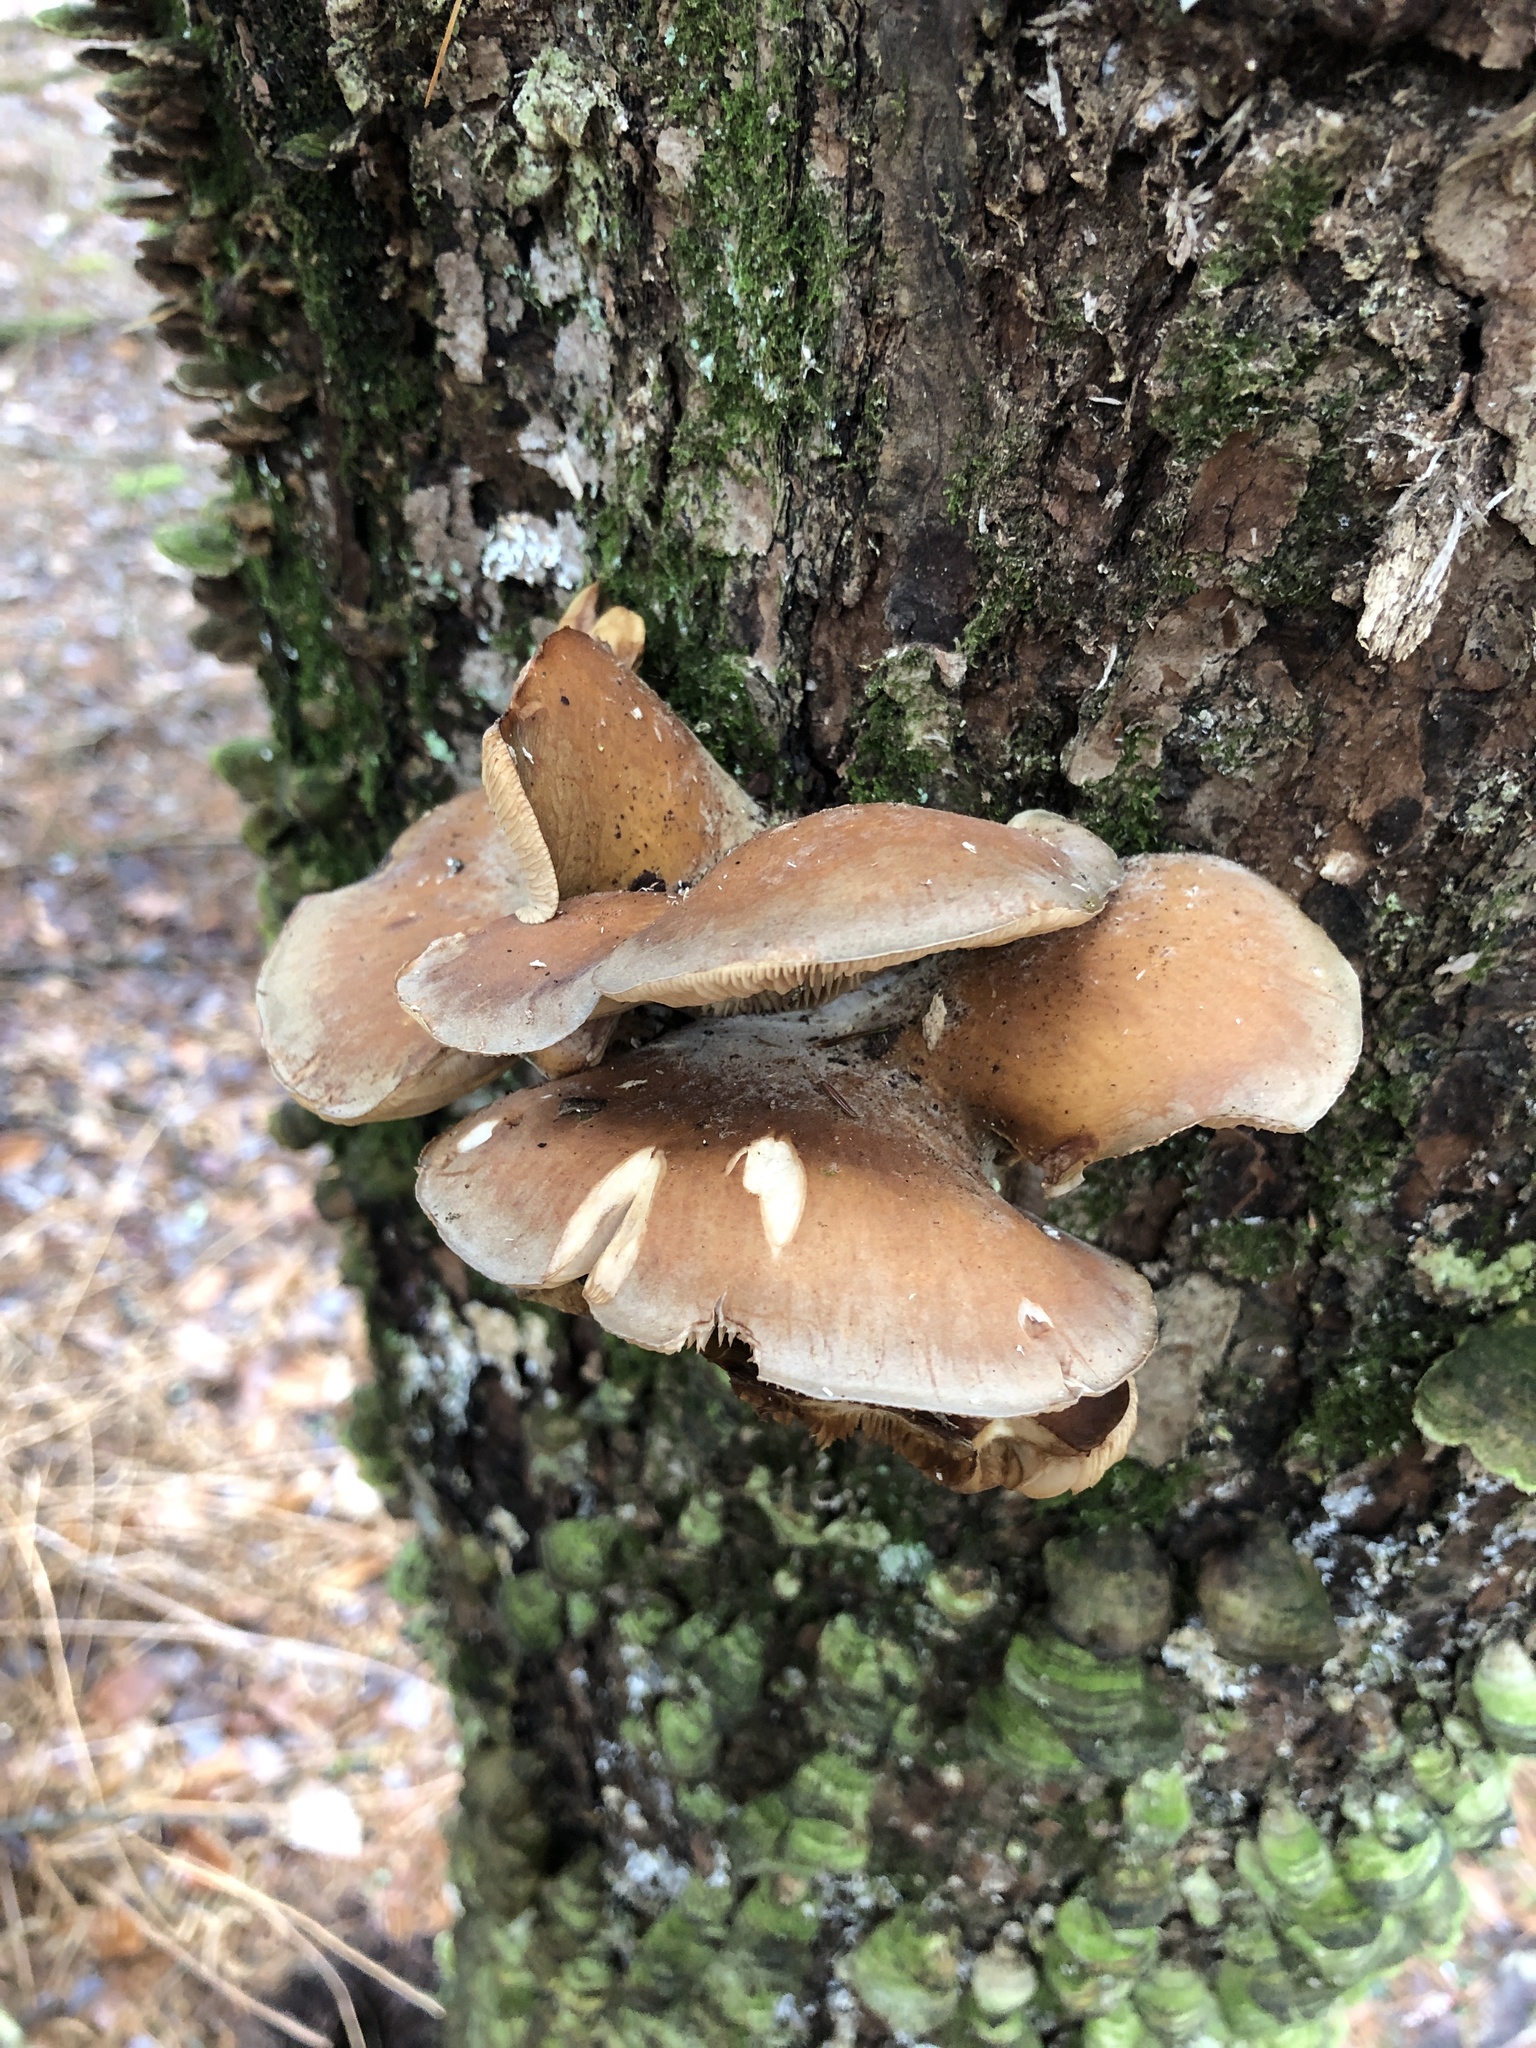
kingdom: Fungi
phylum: Basidiomycota
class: Agaricomycetes
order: Agaricales
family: Sarcomyxaceae
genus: Sarcomyxa
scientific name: Sarcomyxa serotina
